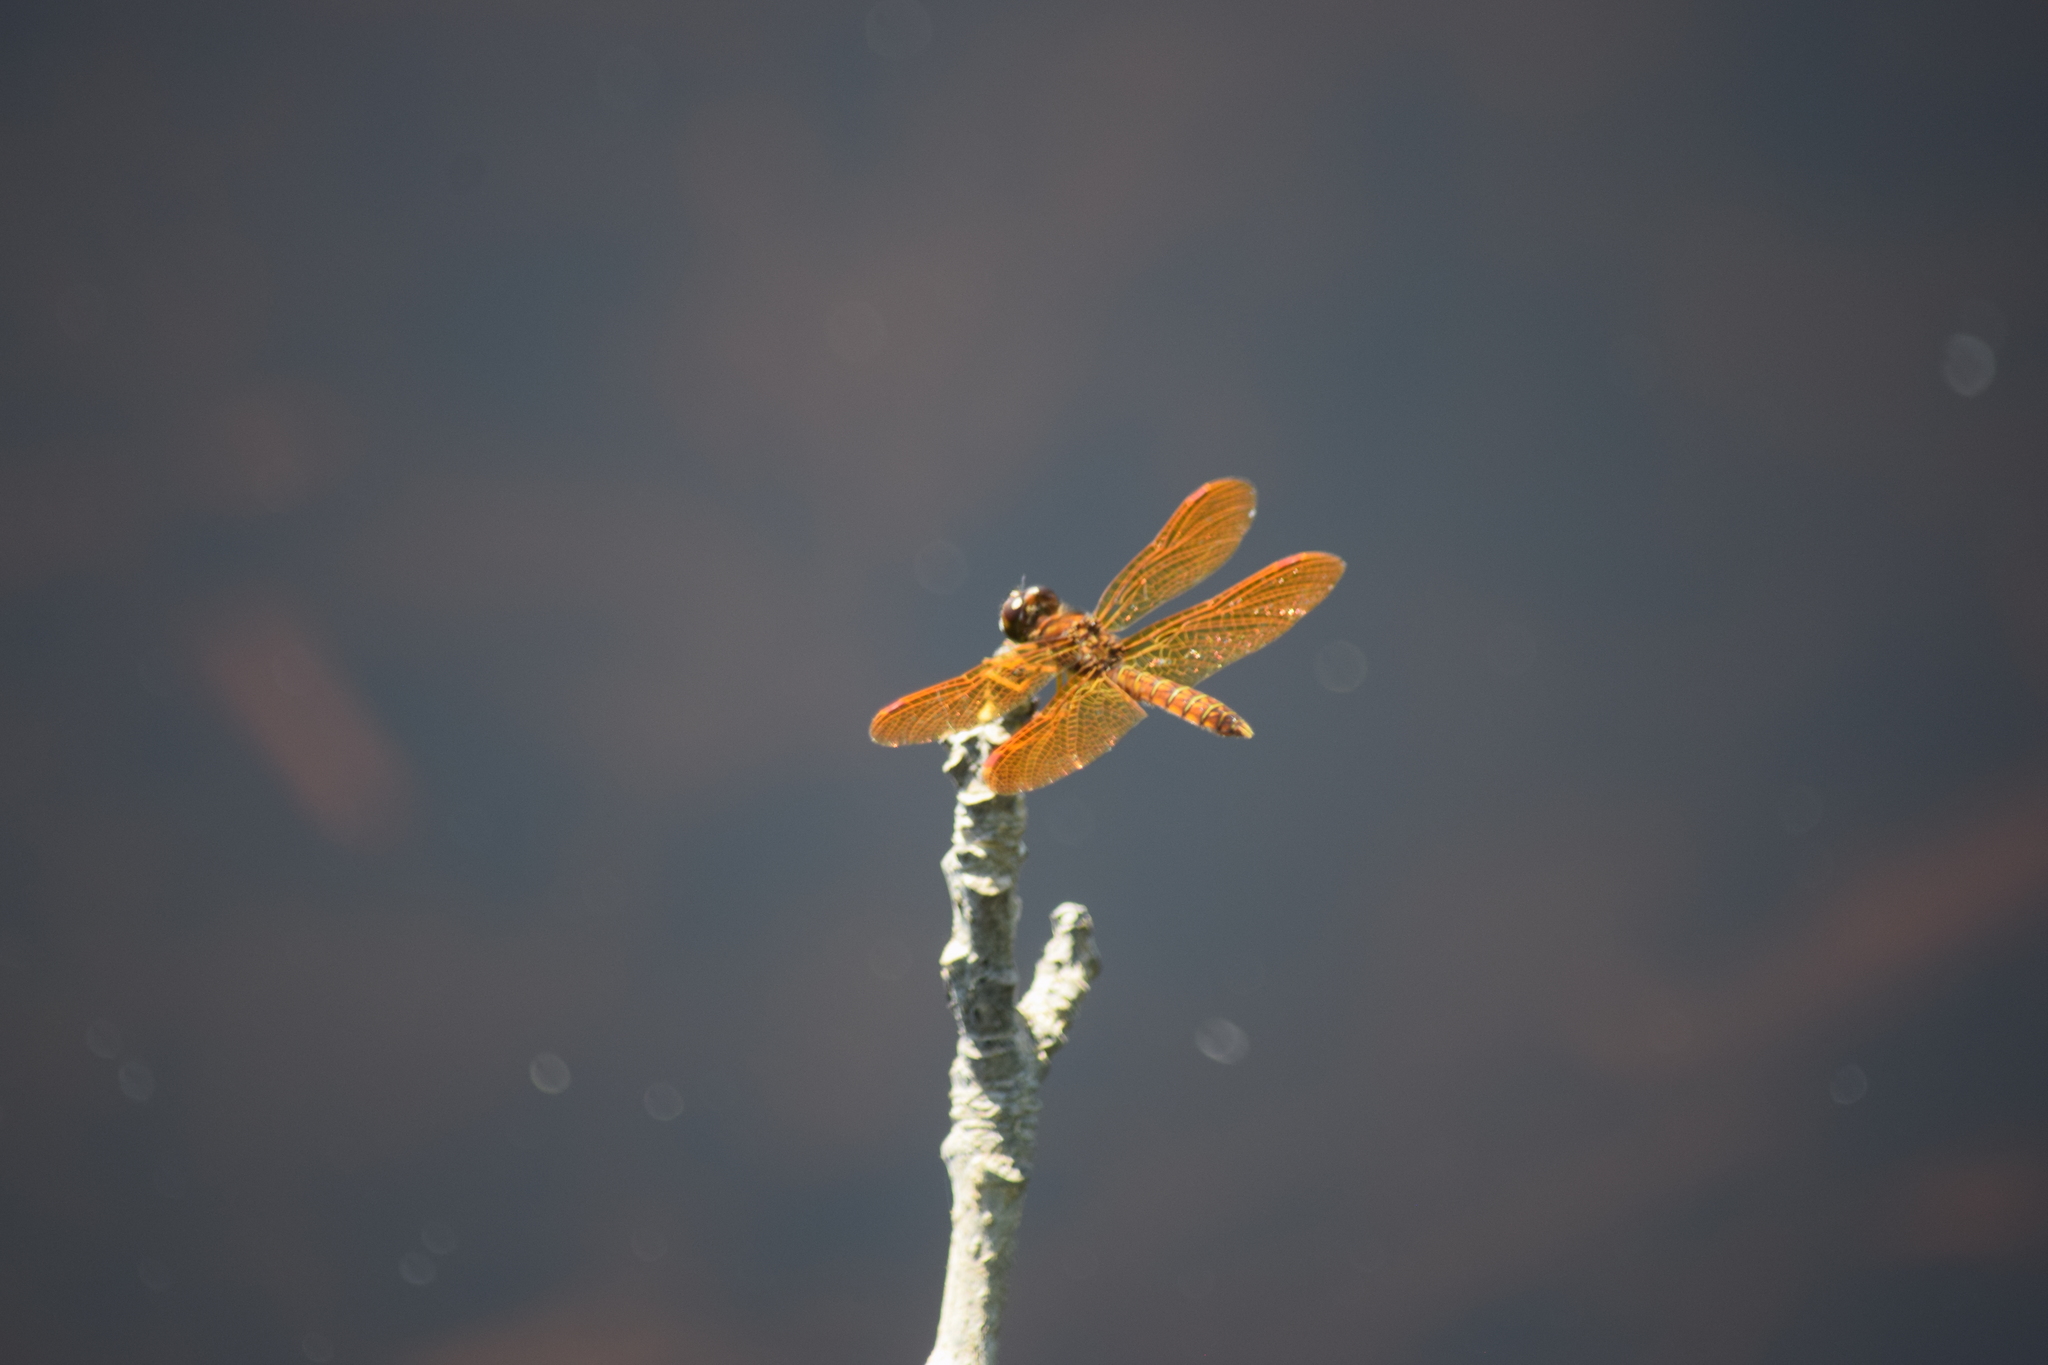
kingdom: Animalia
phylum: Arthropoda
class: Insecta
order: Odonata
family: Libellulidae
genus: Perithemis
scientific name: Perithemis tenera
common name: Eastern amberwing
